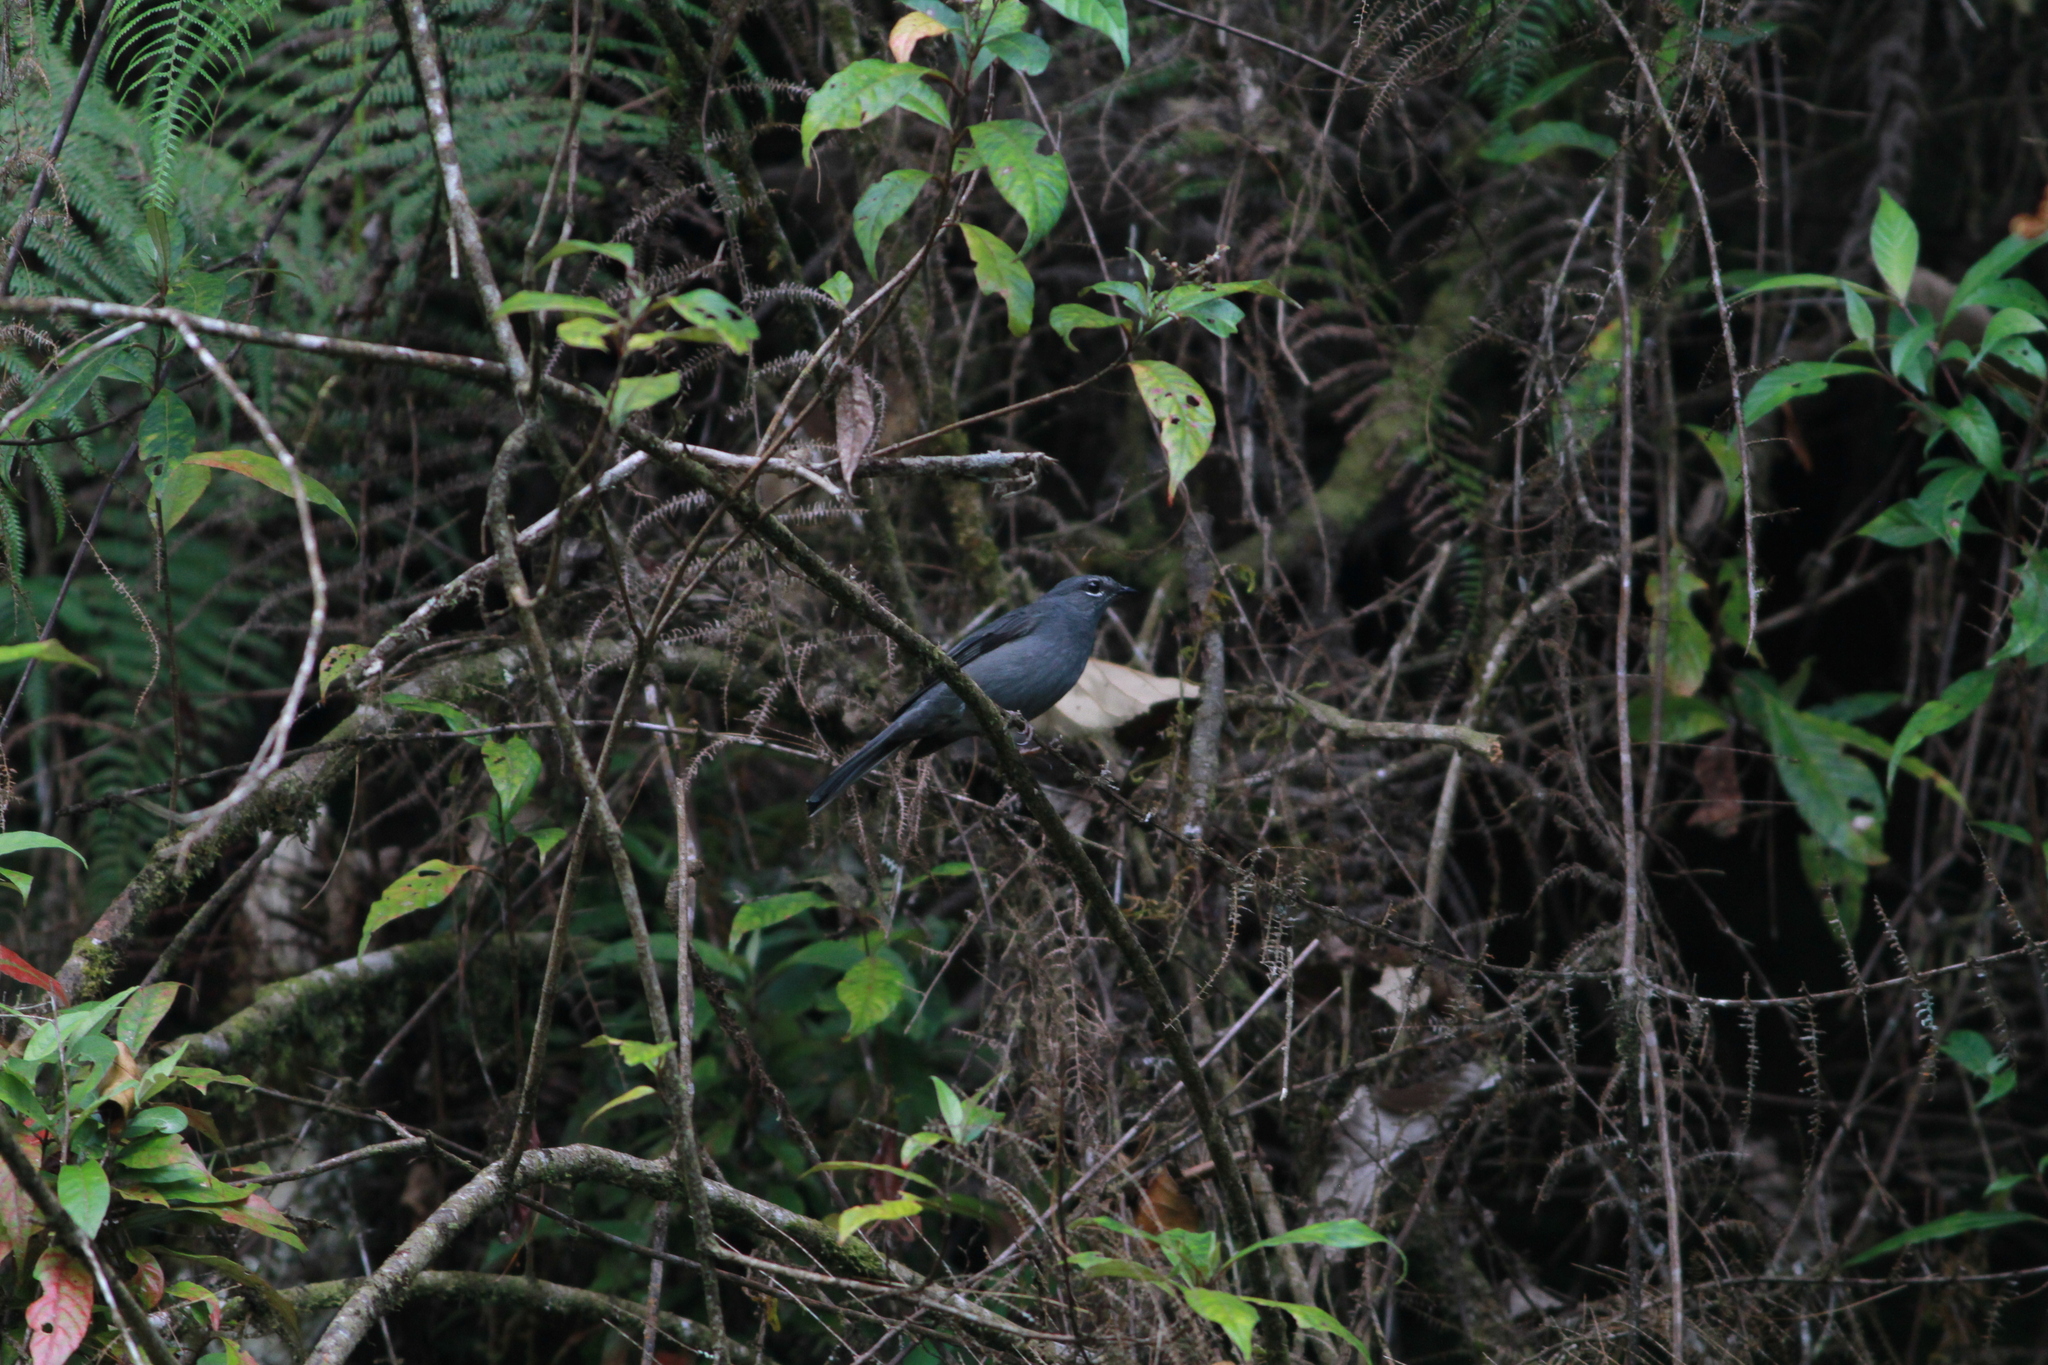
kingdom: Animalia
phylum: Chordata
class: Aves
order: Passeriformes
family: Turdidae
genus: Myadestes
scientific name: Myadestes unicolor
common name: Slate-colored solitaire
